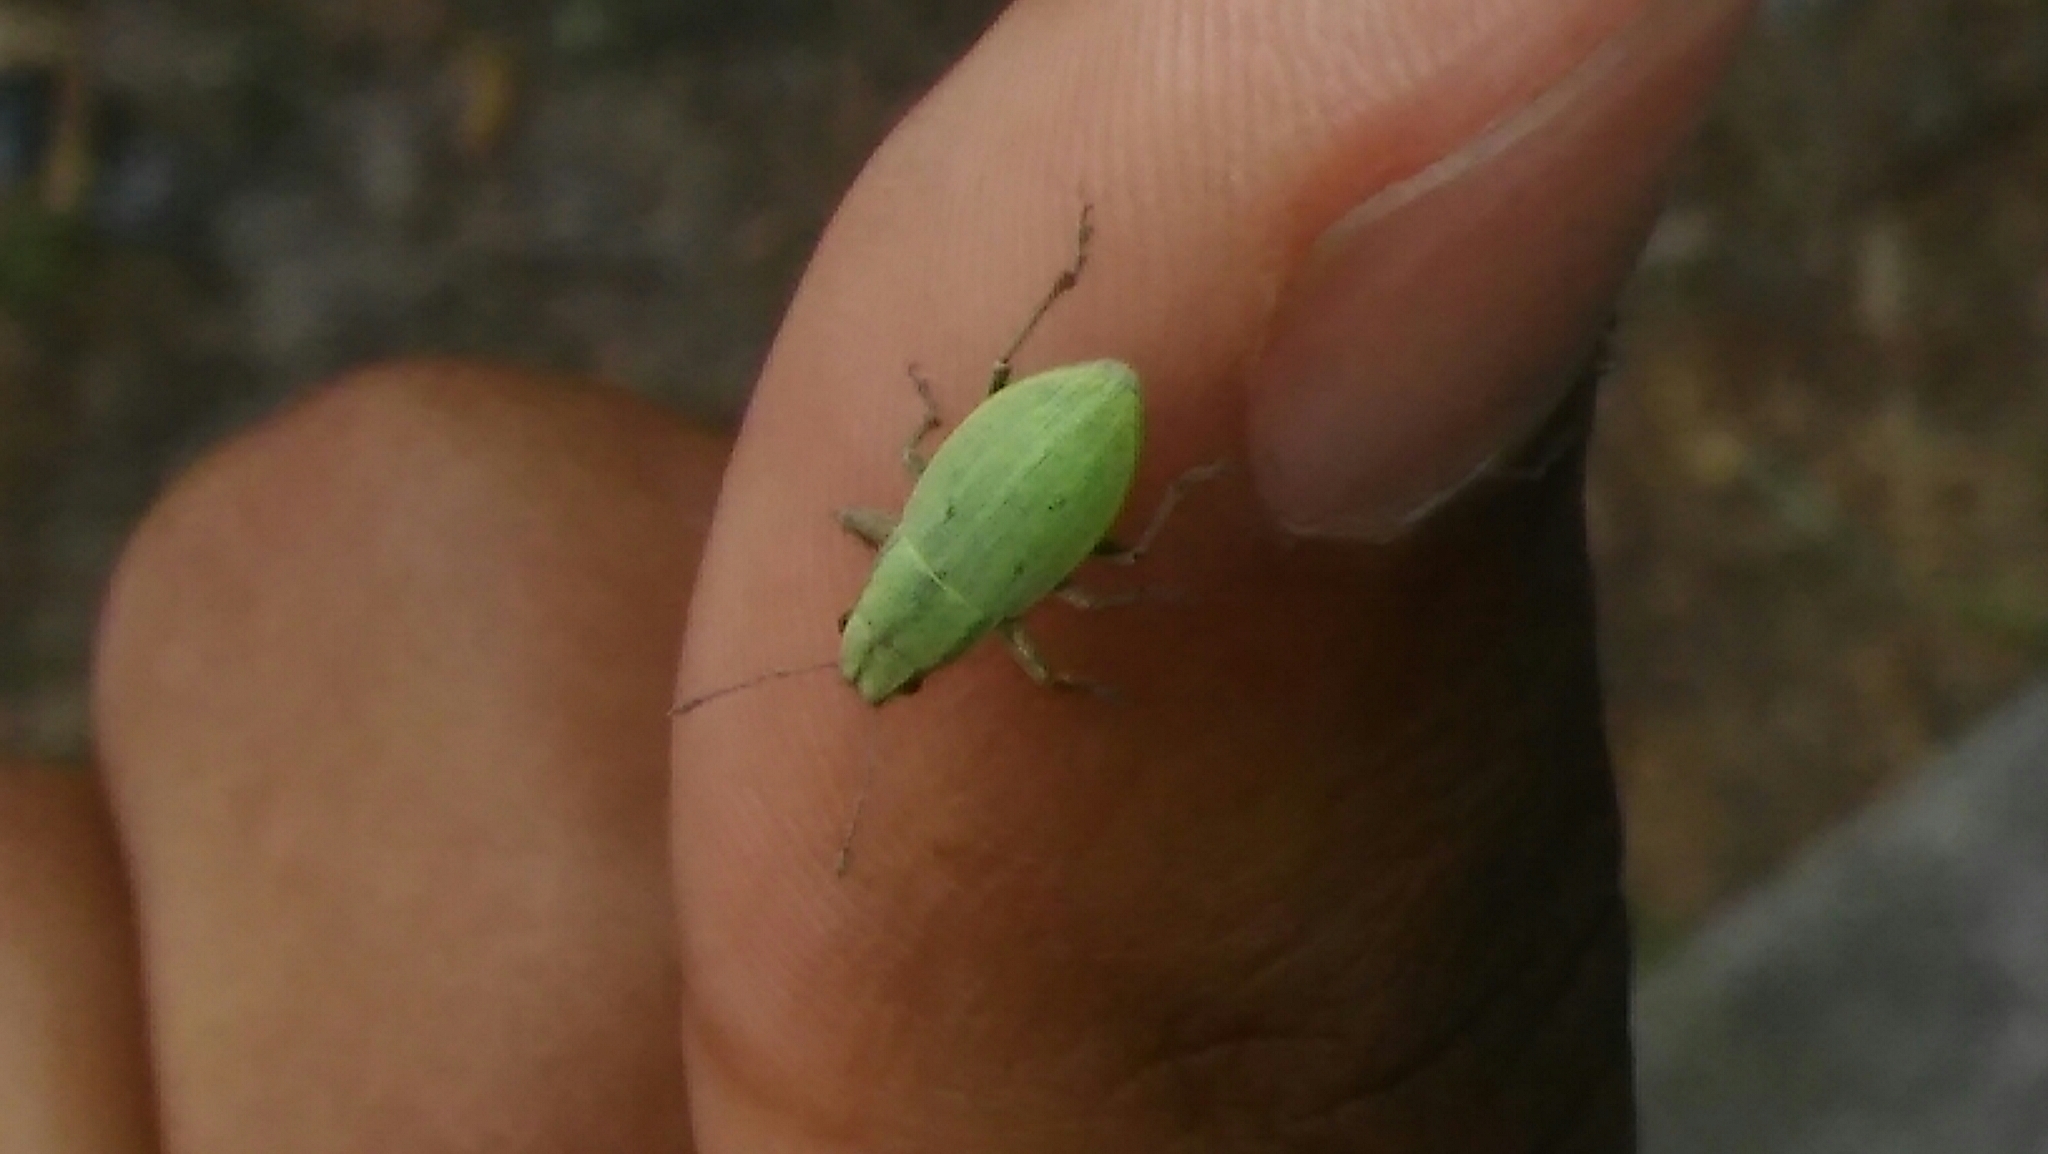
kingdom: Animalia
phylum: Arthropoda
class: Insecta
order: Coleoptera
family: Curculionidae
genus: Pantomorus
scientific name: Pantomorus viridisquamosus
